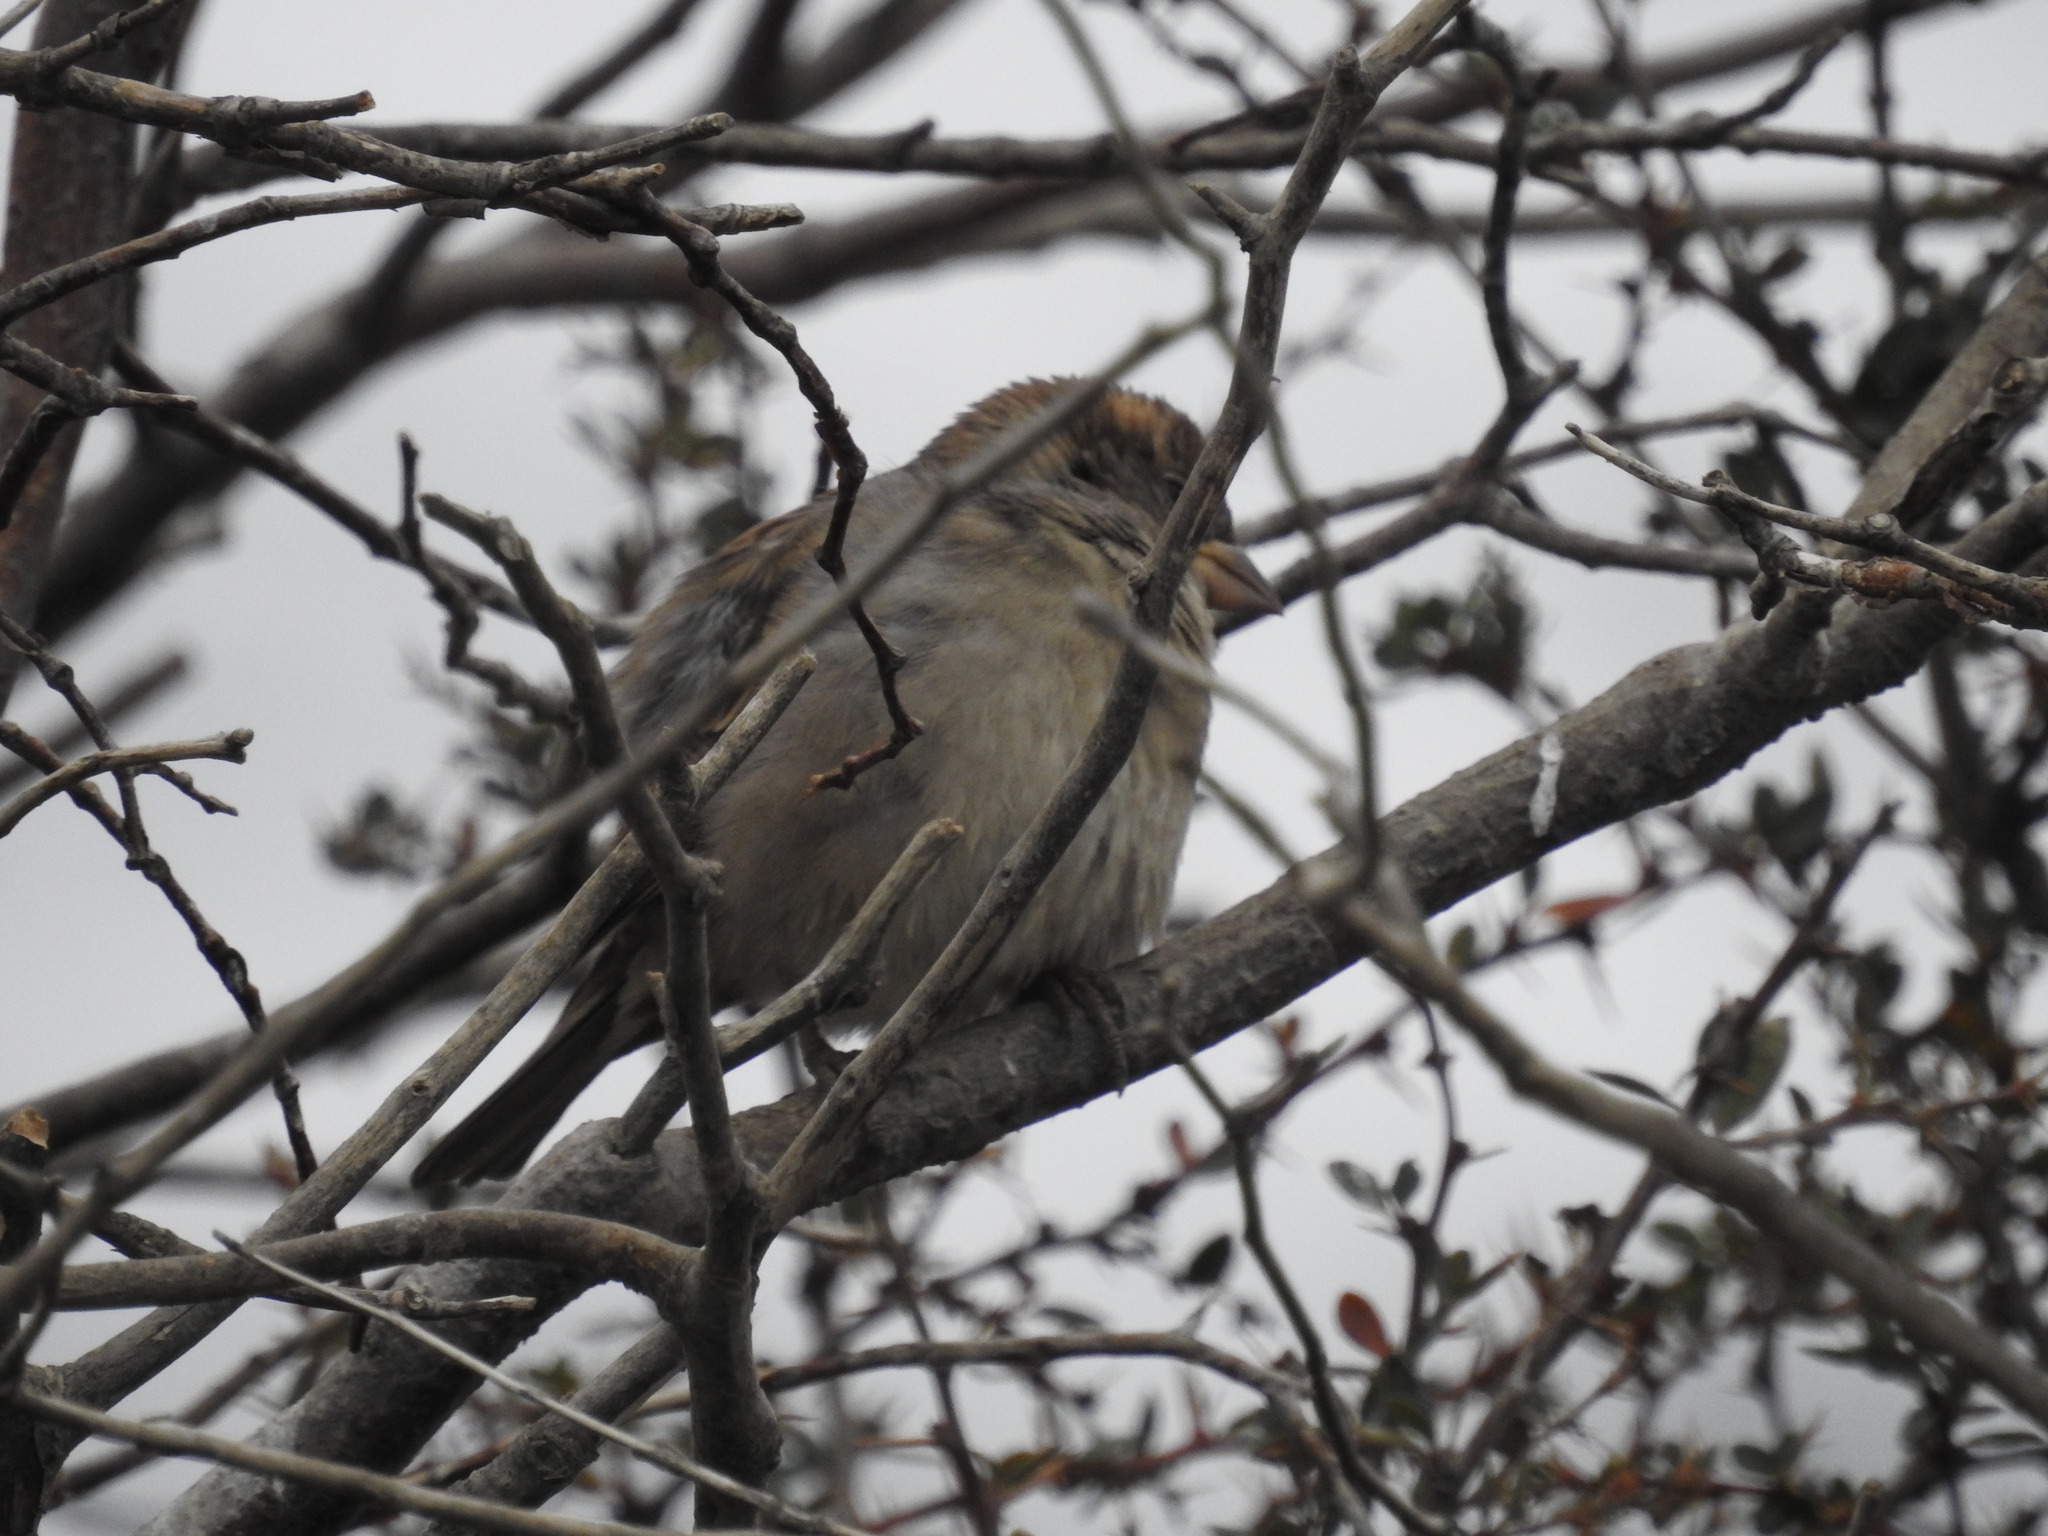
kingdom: Animalia
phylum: Chordata
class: Aves
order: Passeriformes
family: Passeridae
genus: Passer
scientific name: Passer domesticus
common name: House sparrow
